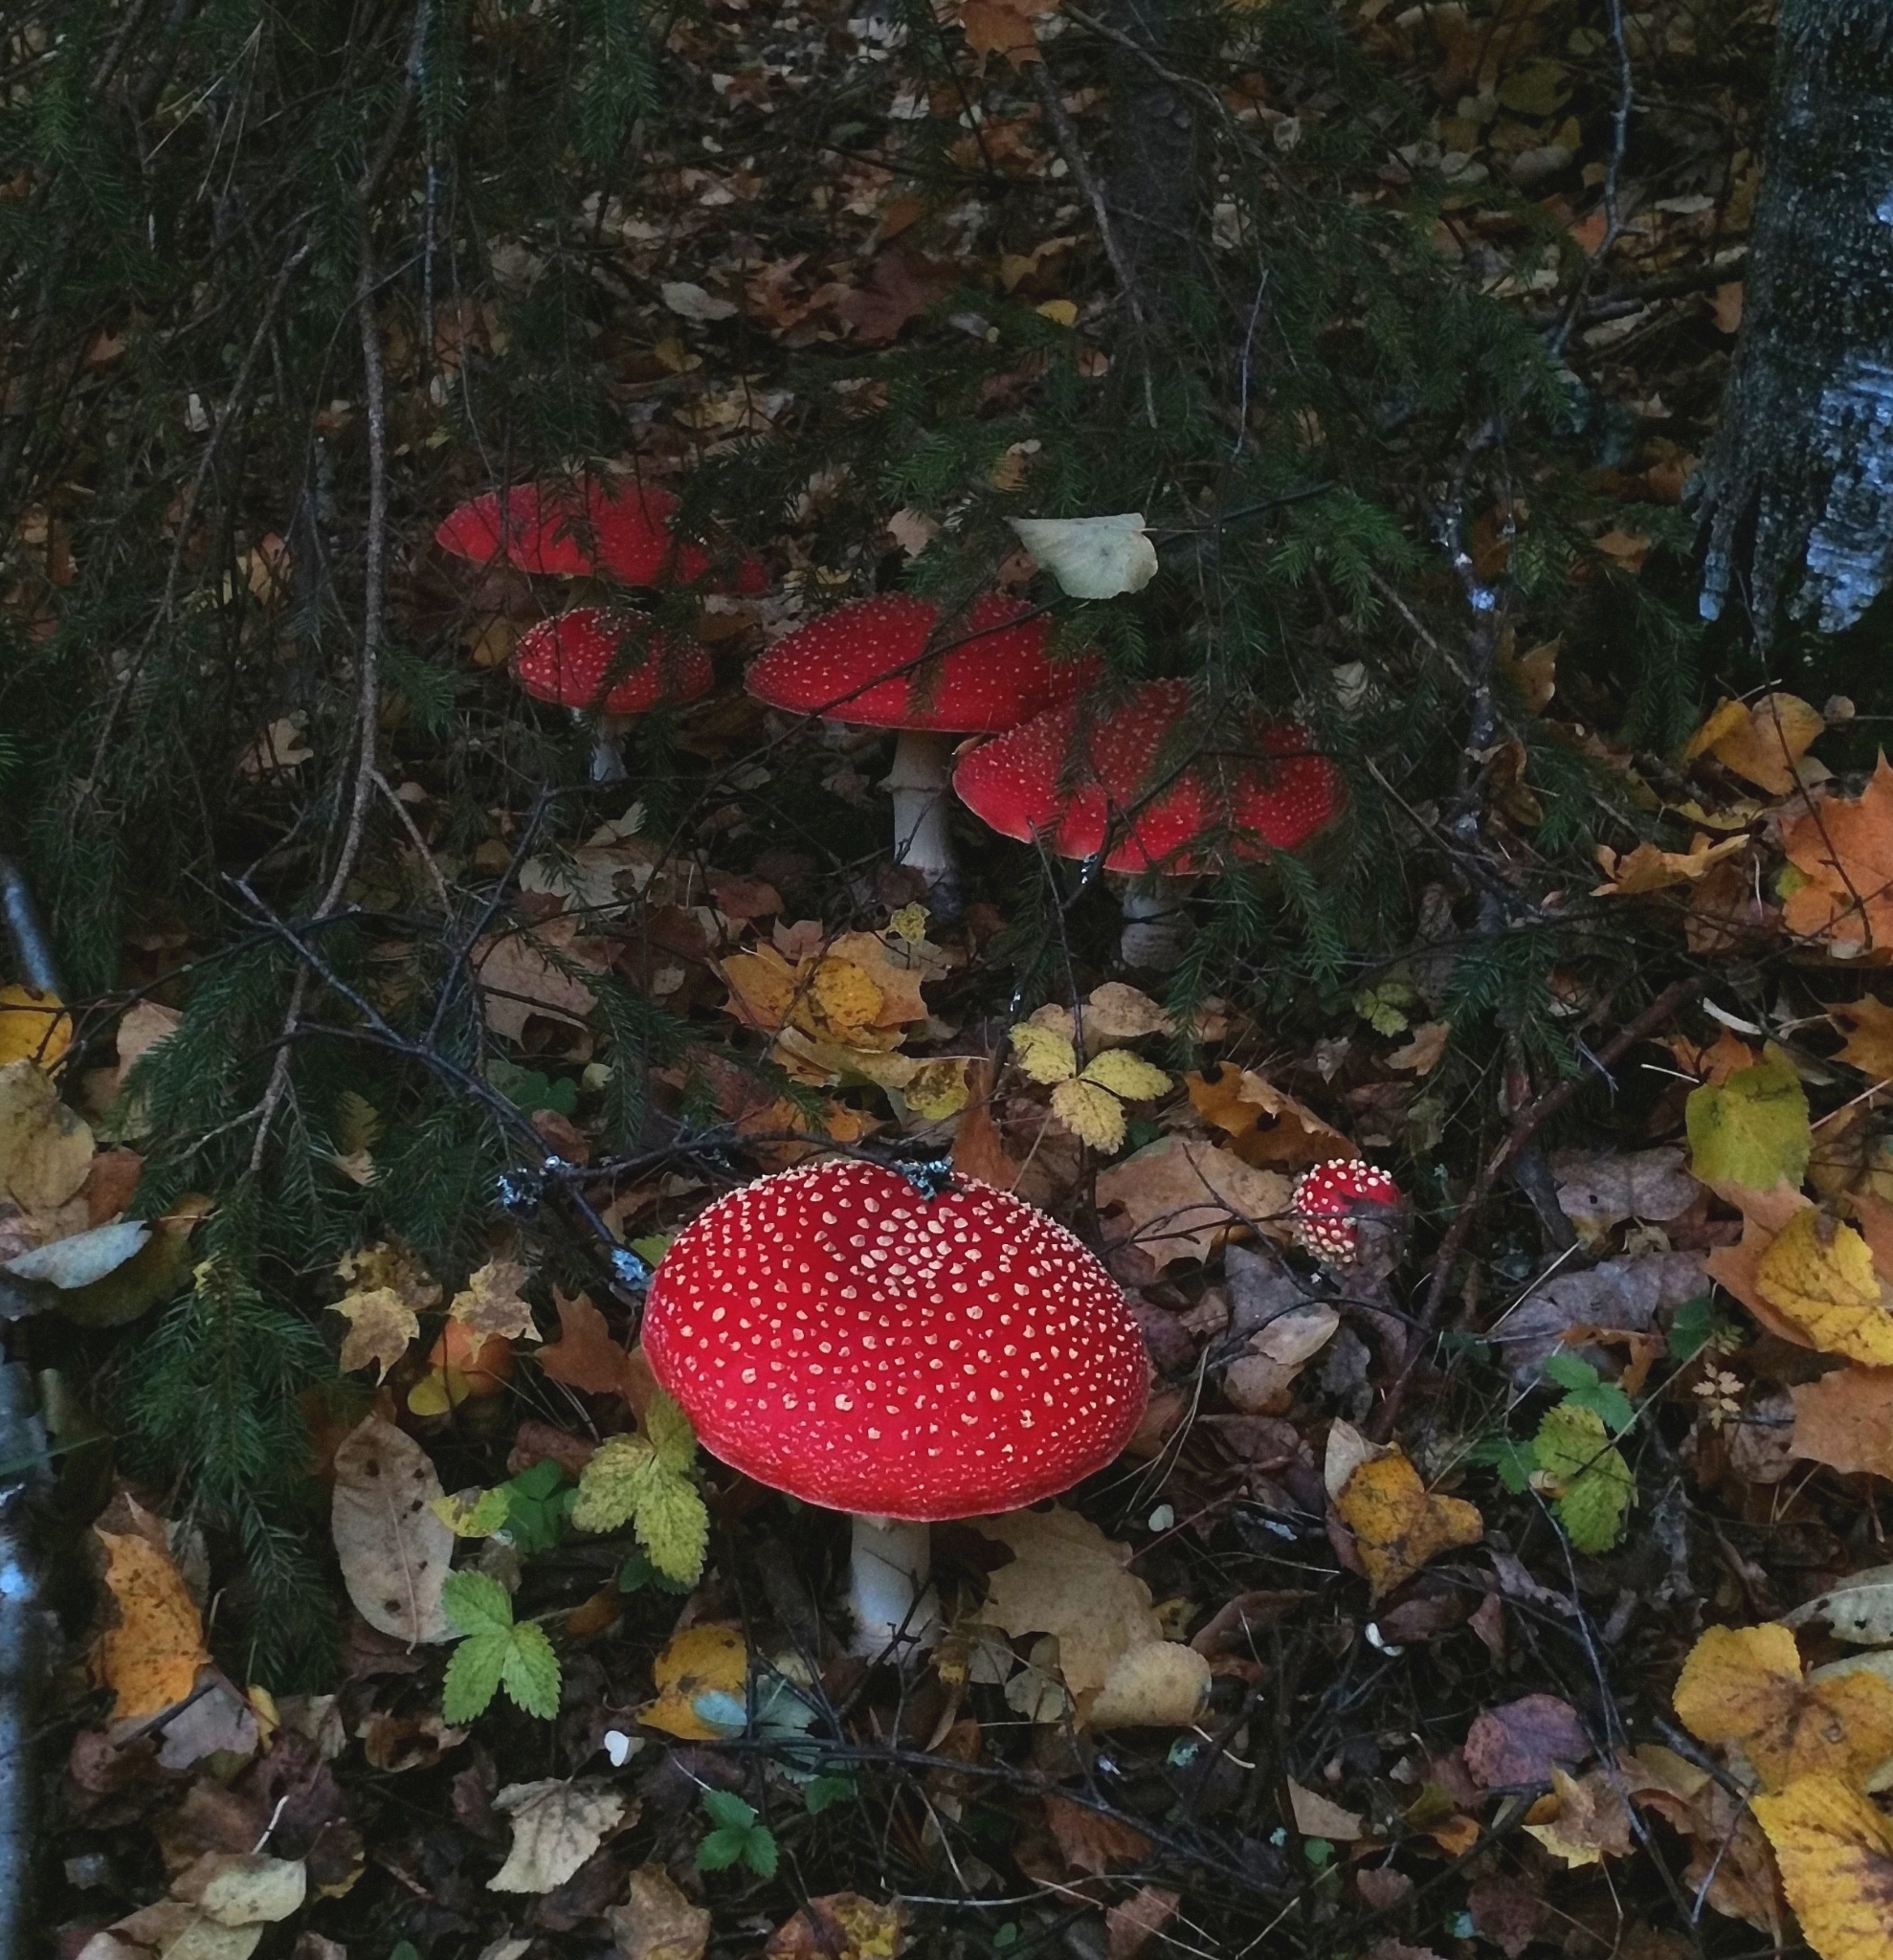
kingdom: Fungi
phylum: Basidiomycota
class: Agaricomycetes
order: Agaricales
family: Amanitaceae
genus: Amanita
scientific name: Amanita muscaria
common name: Fly agaric
